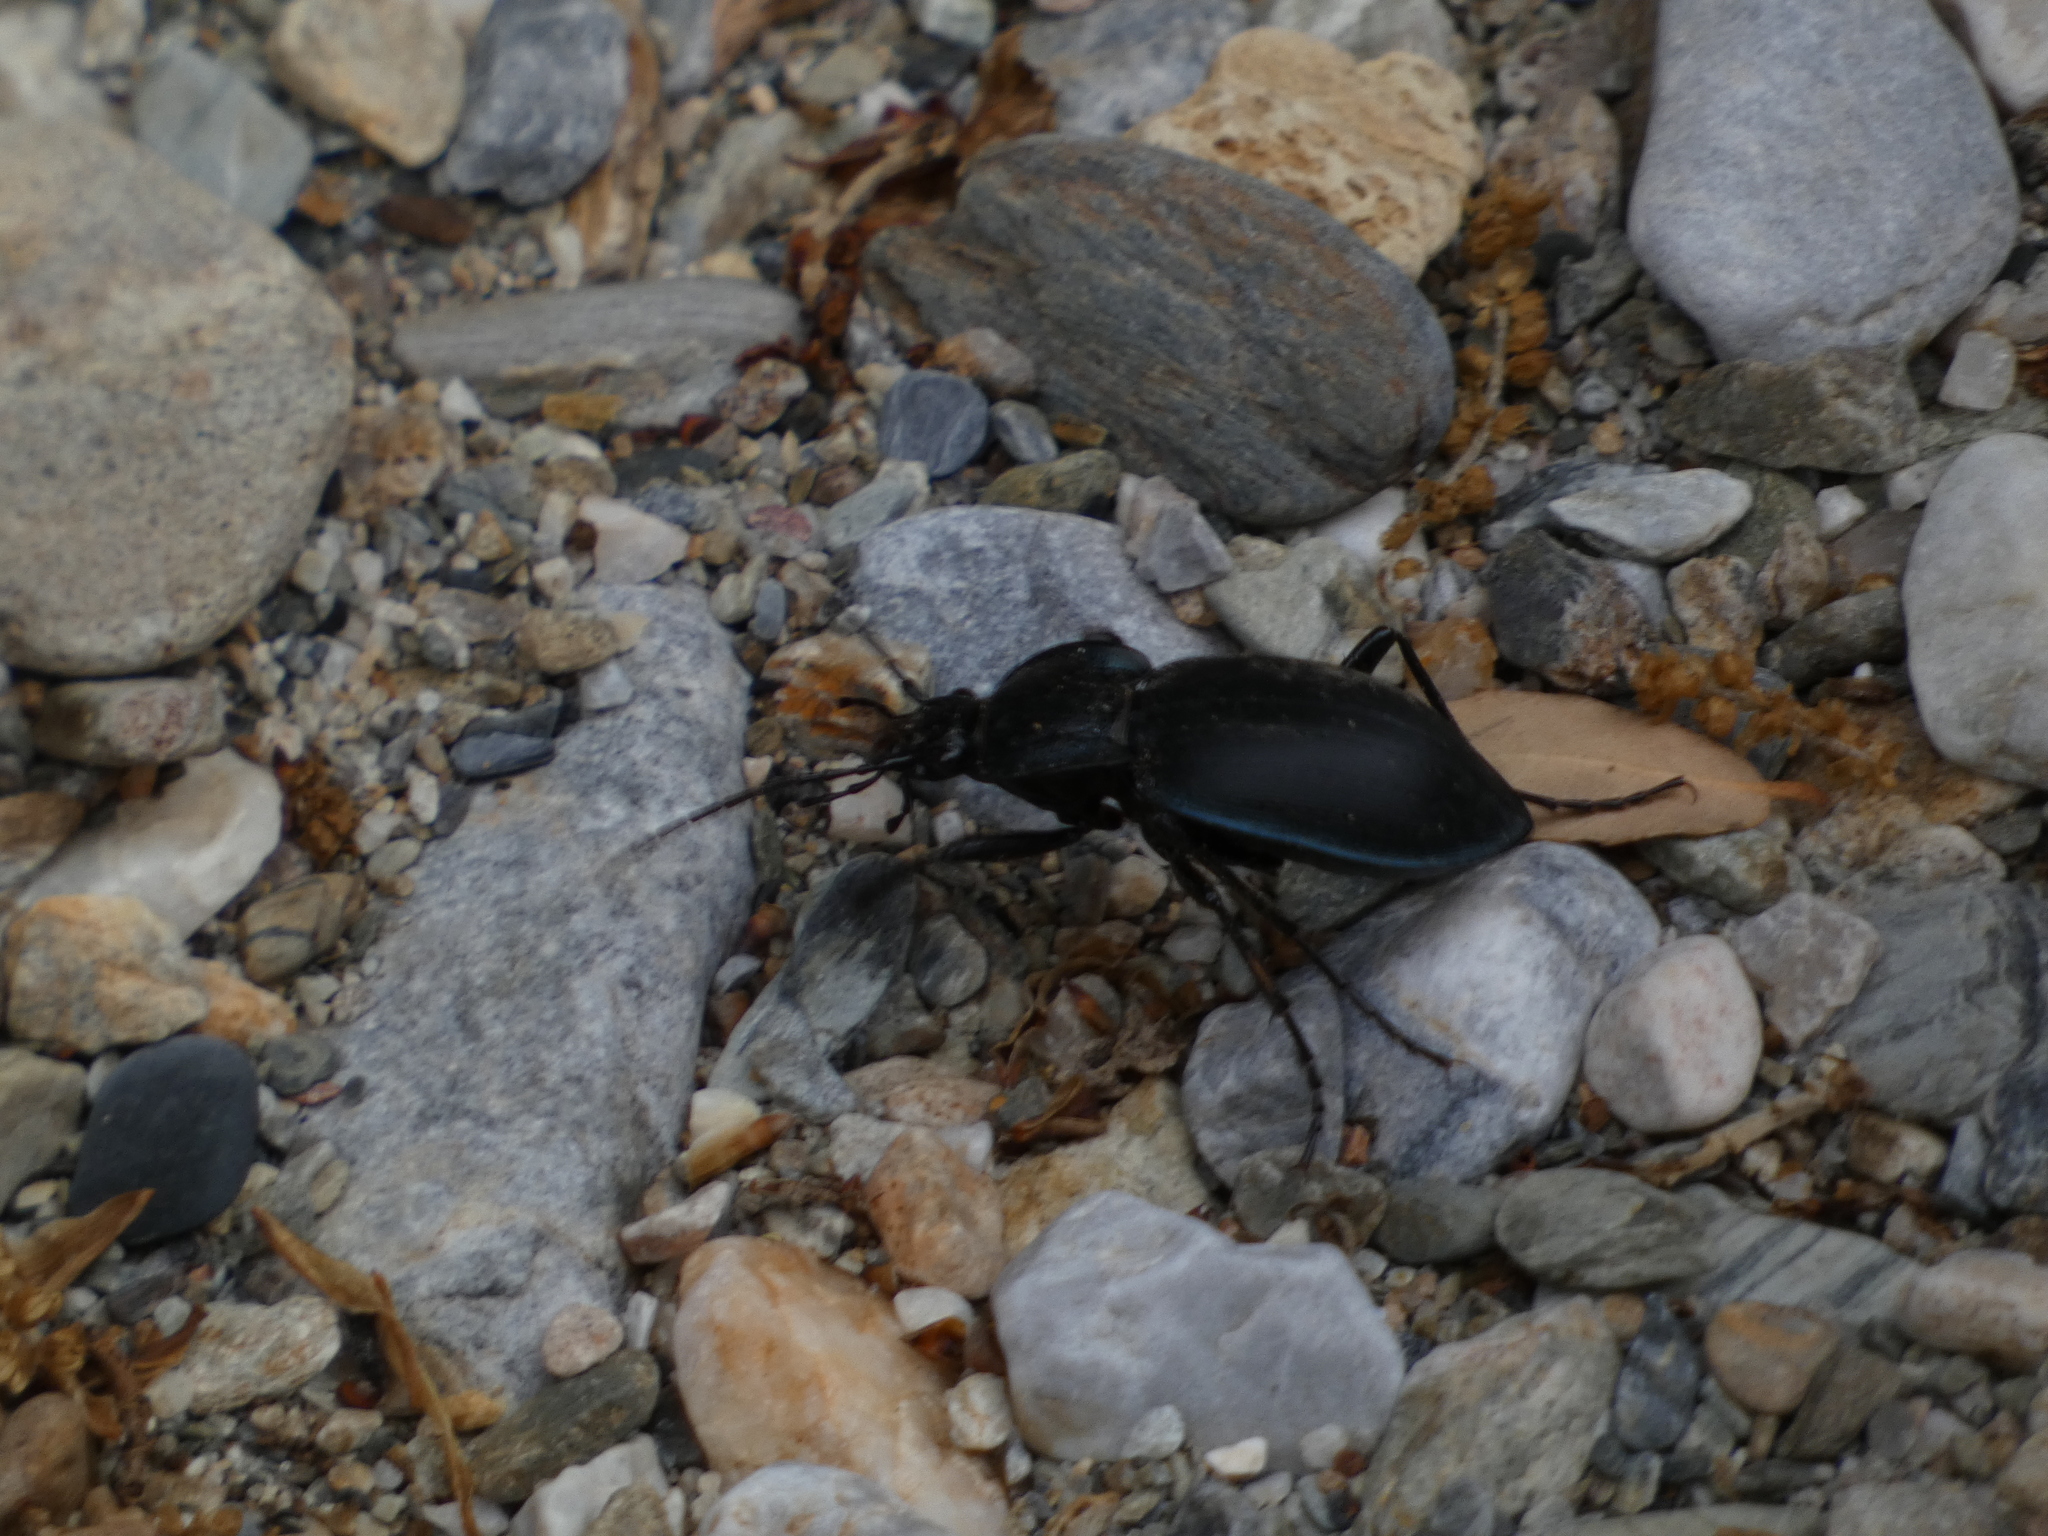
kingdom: Animalia
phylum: Arthropoda
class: Insecta
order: Coleoptera
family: Carabidae
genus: Carabus
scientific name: Carabus preslii
